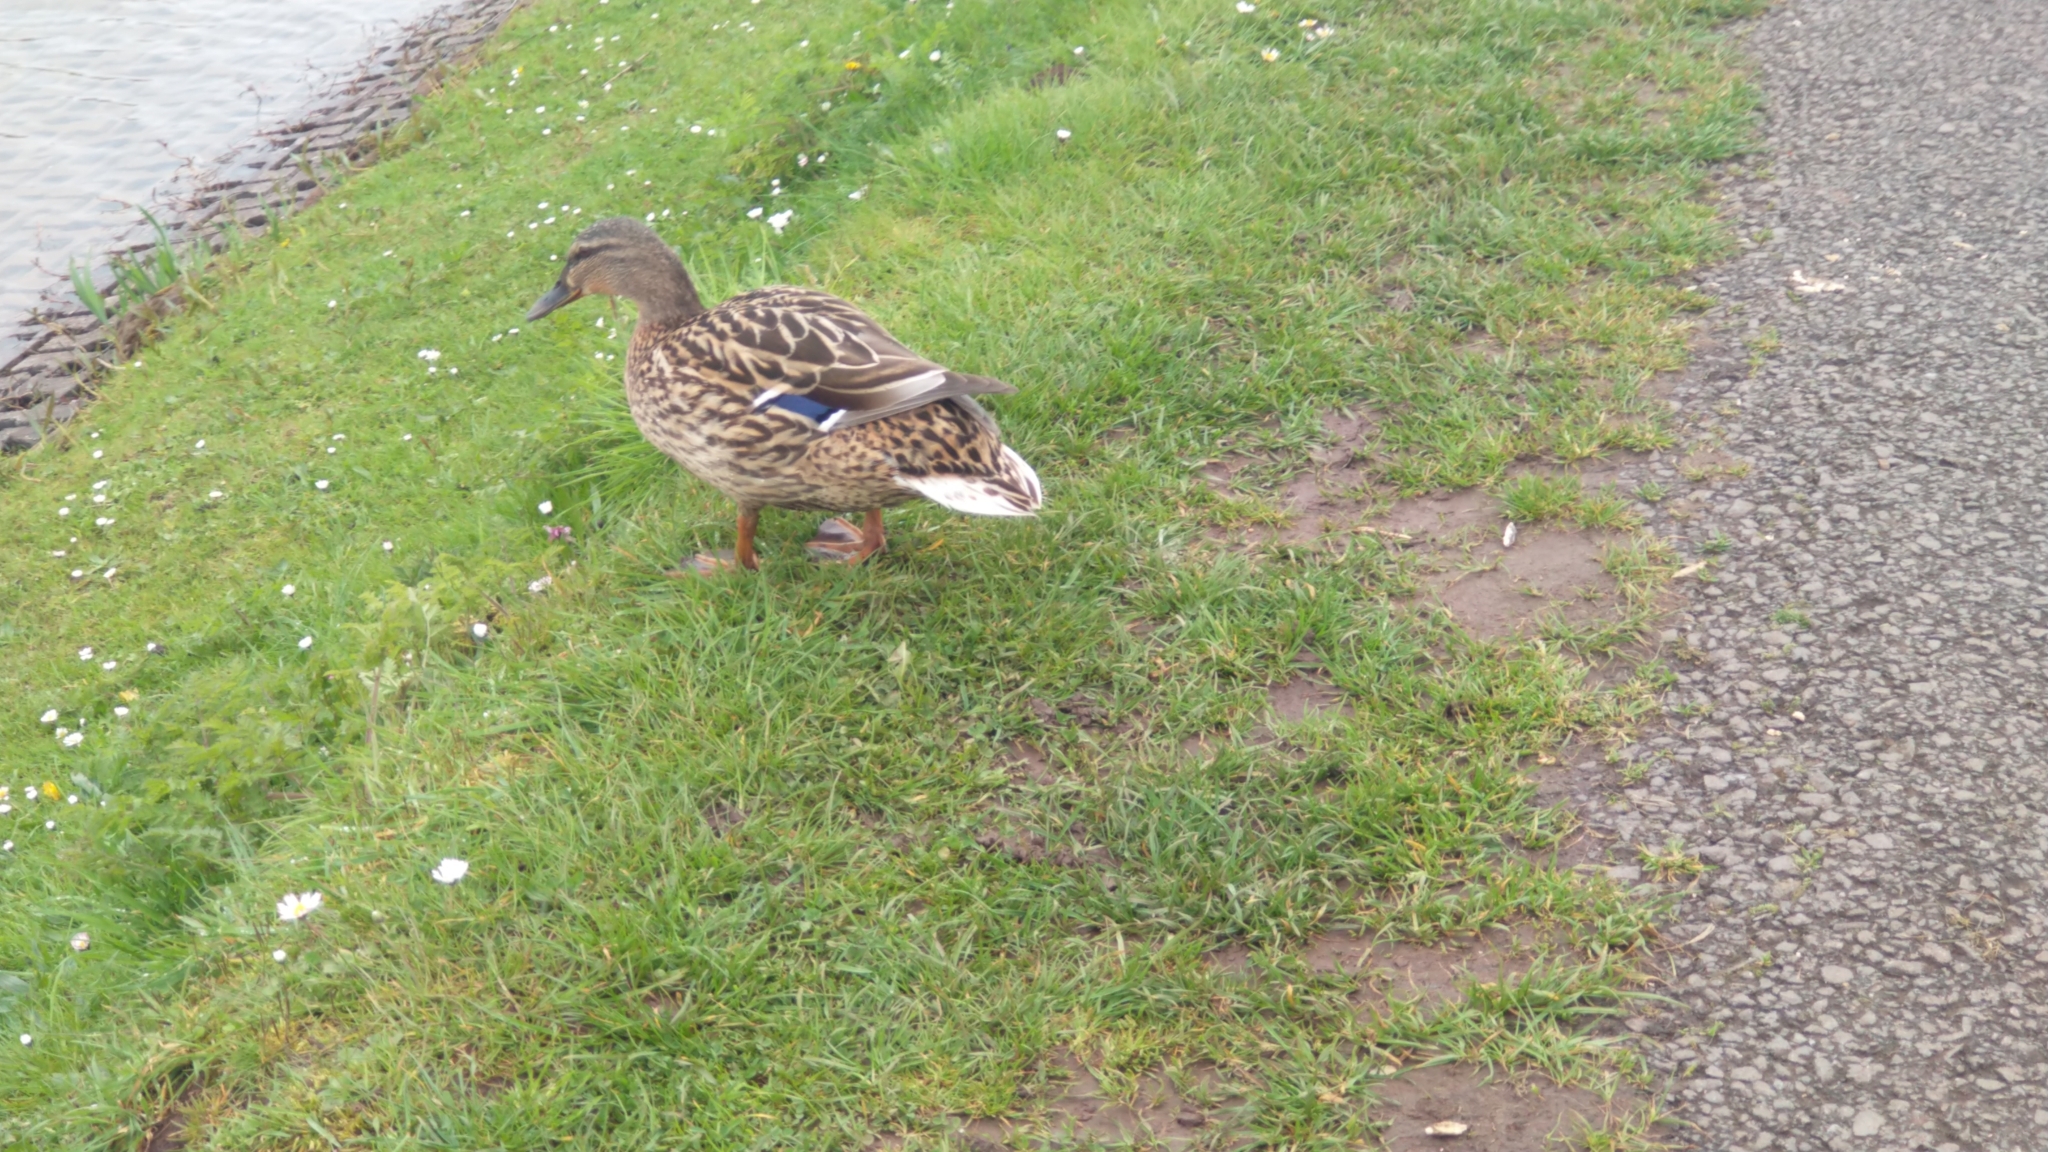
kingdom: Animalia
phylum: Chordata
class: Aves
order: Anseriformes
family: Anatidae
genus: Anas
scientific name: Anas platyrhynchos
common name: Mallard
